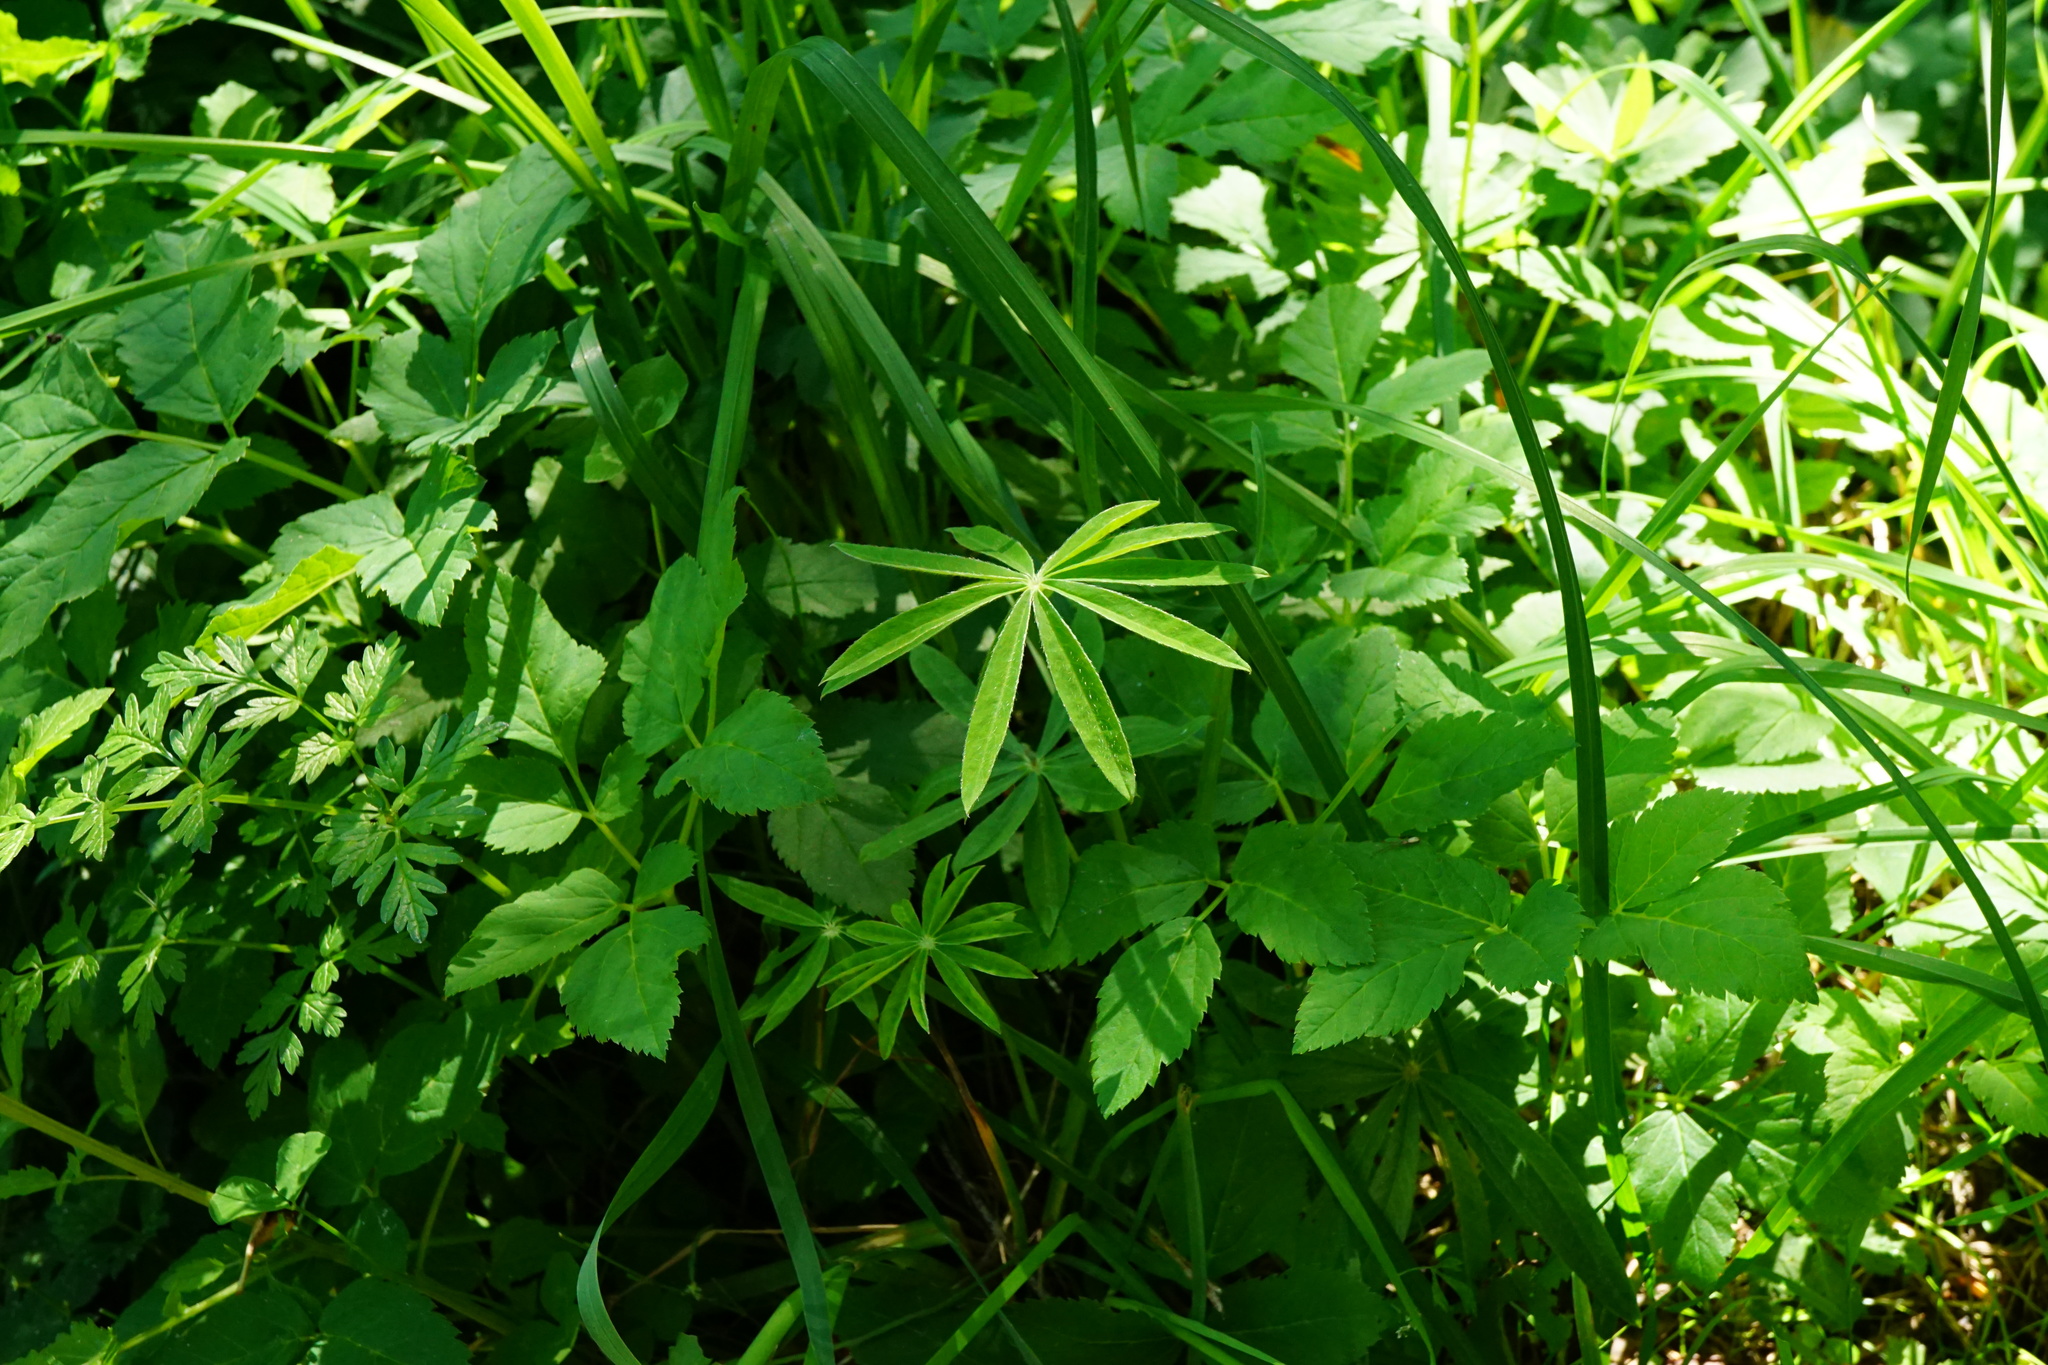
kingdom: Plantae
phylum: Tracheophyta
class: Magnoliopsida
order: Fabales
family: Fabaceae
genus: Lupinus
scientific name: Lupinus polyphyllus
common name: Garden lupin
